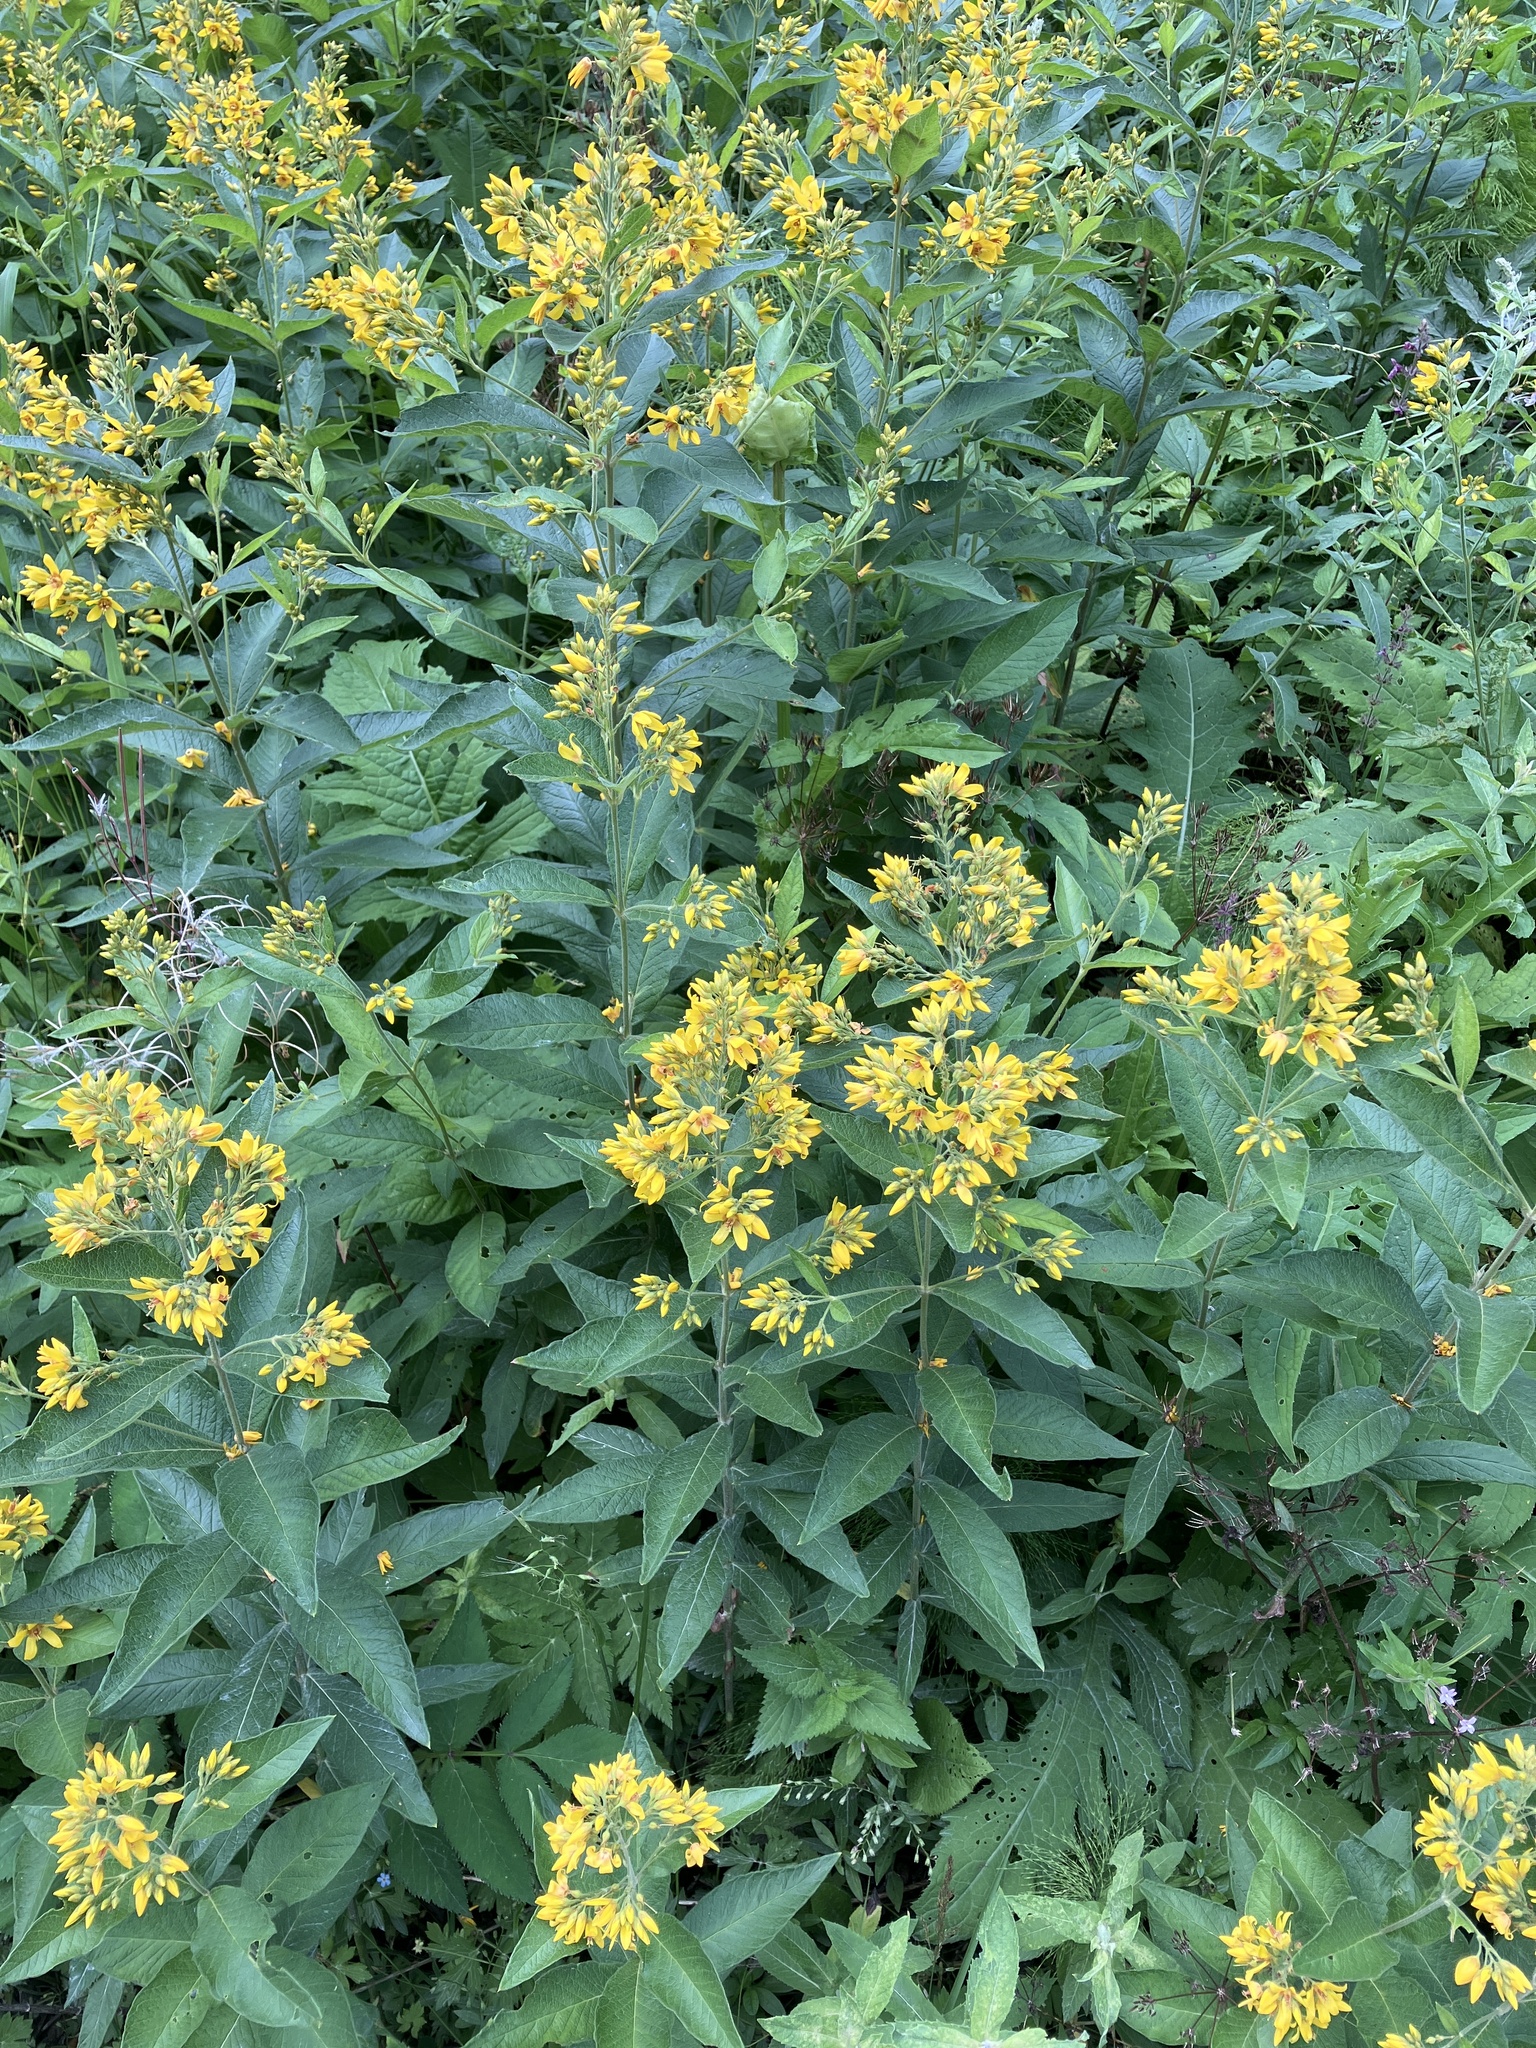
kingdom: Plantae
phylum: Tracheophyta
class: Magnoliopsida
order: Ericales
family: Primulaceae
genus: Lysimachia
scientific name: Lysimachia vulgaris
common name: Yellow loosestrife
